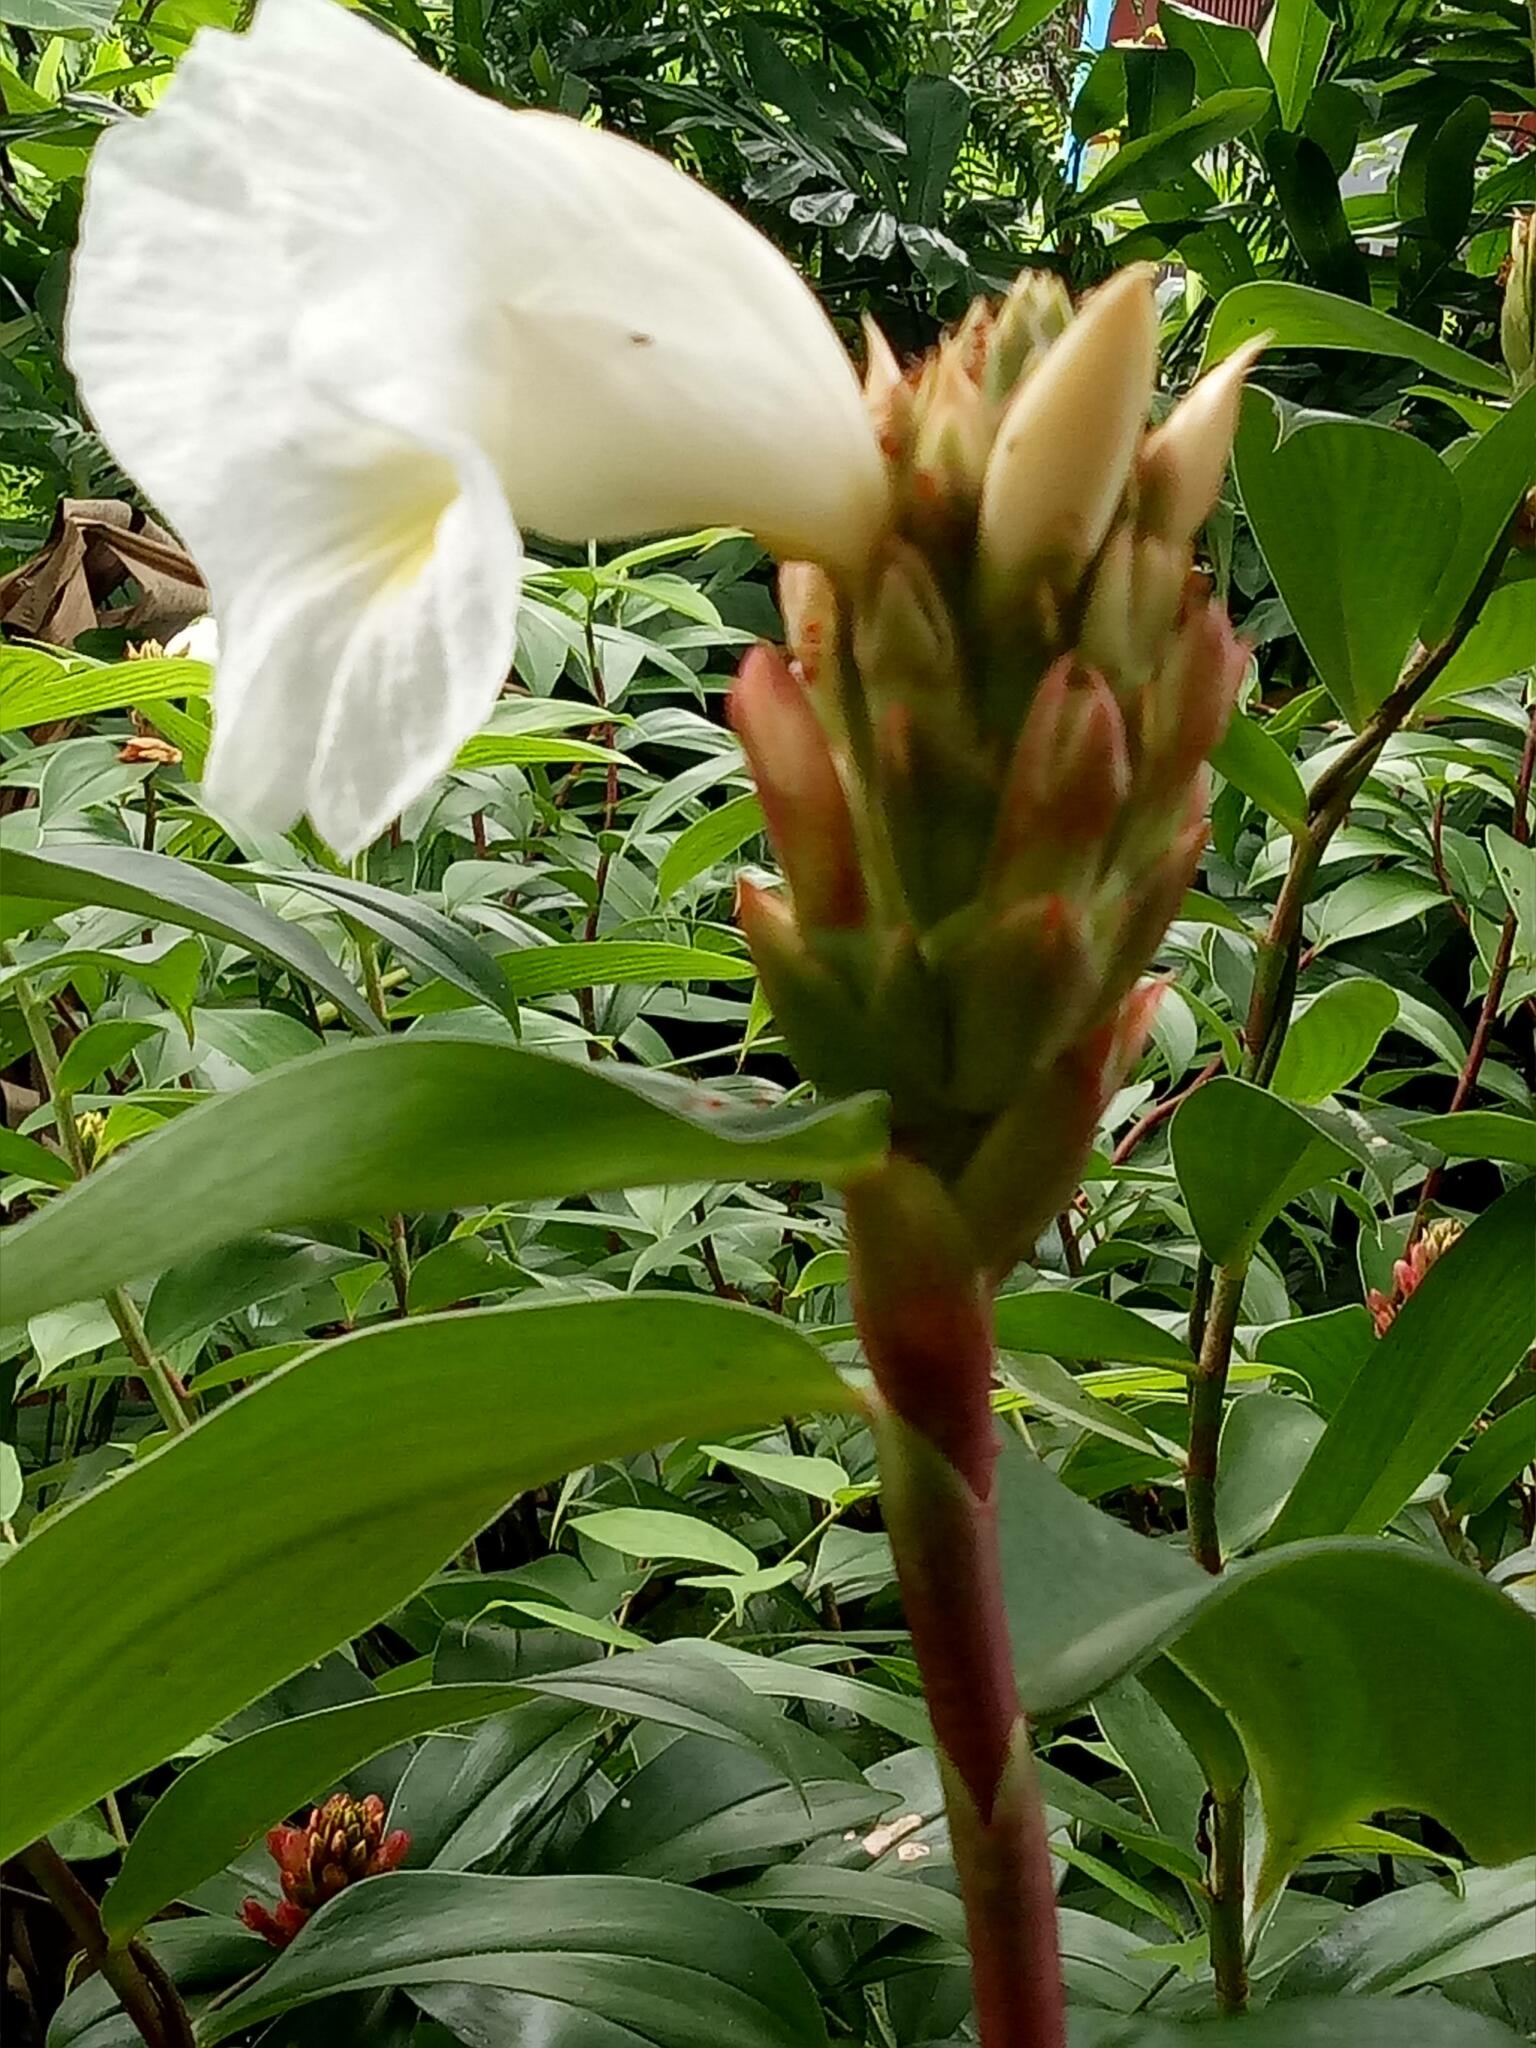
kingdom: Plantae
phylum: Tracheophyta
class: Liliopsida
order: Zingiberales
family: Costaceae
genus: Hellenia
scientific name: Hellenia speciosa
